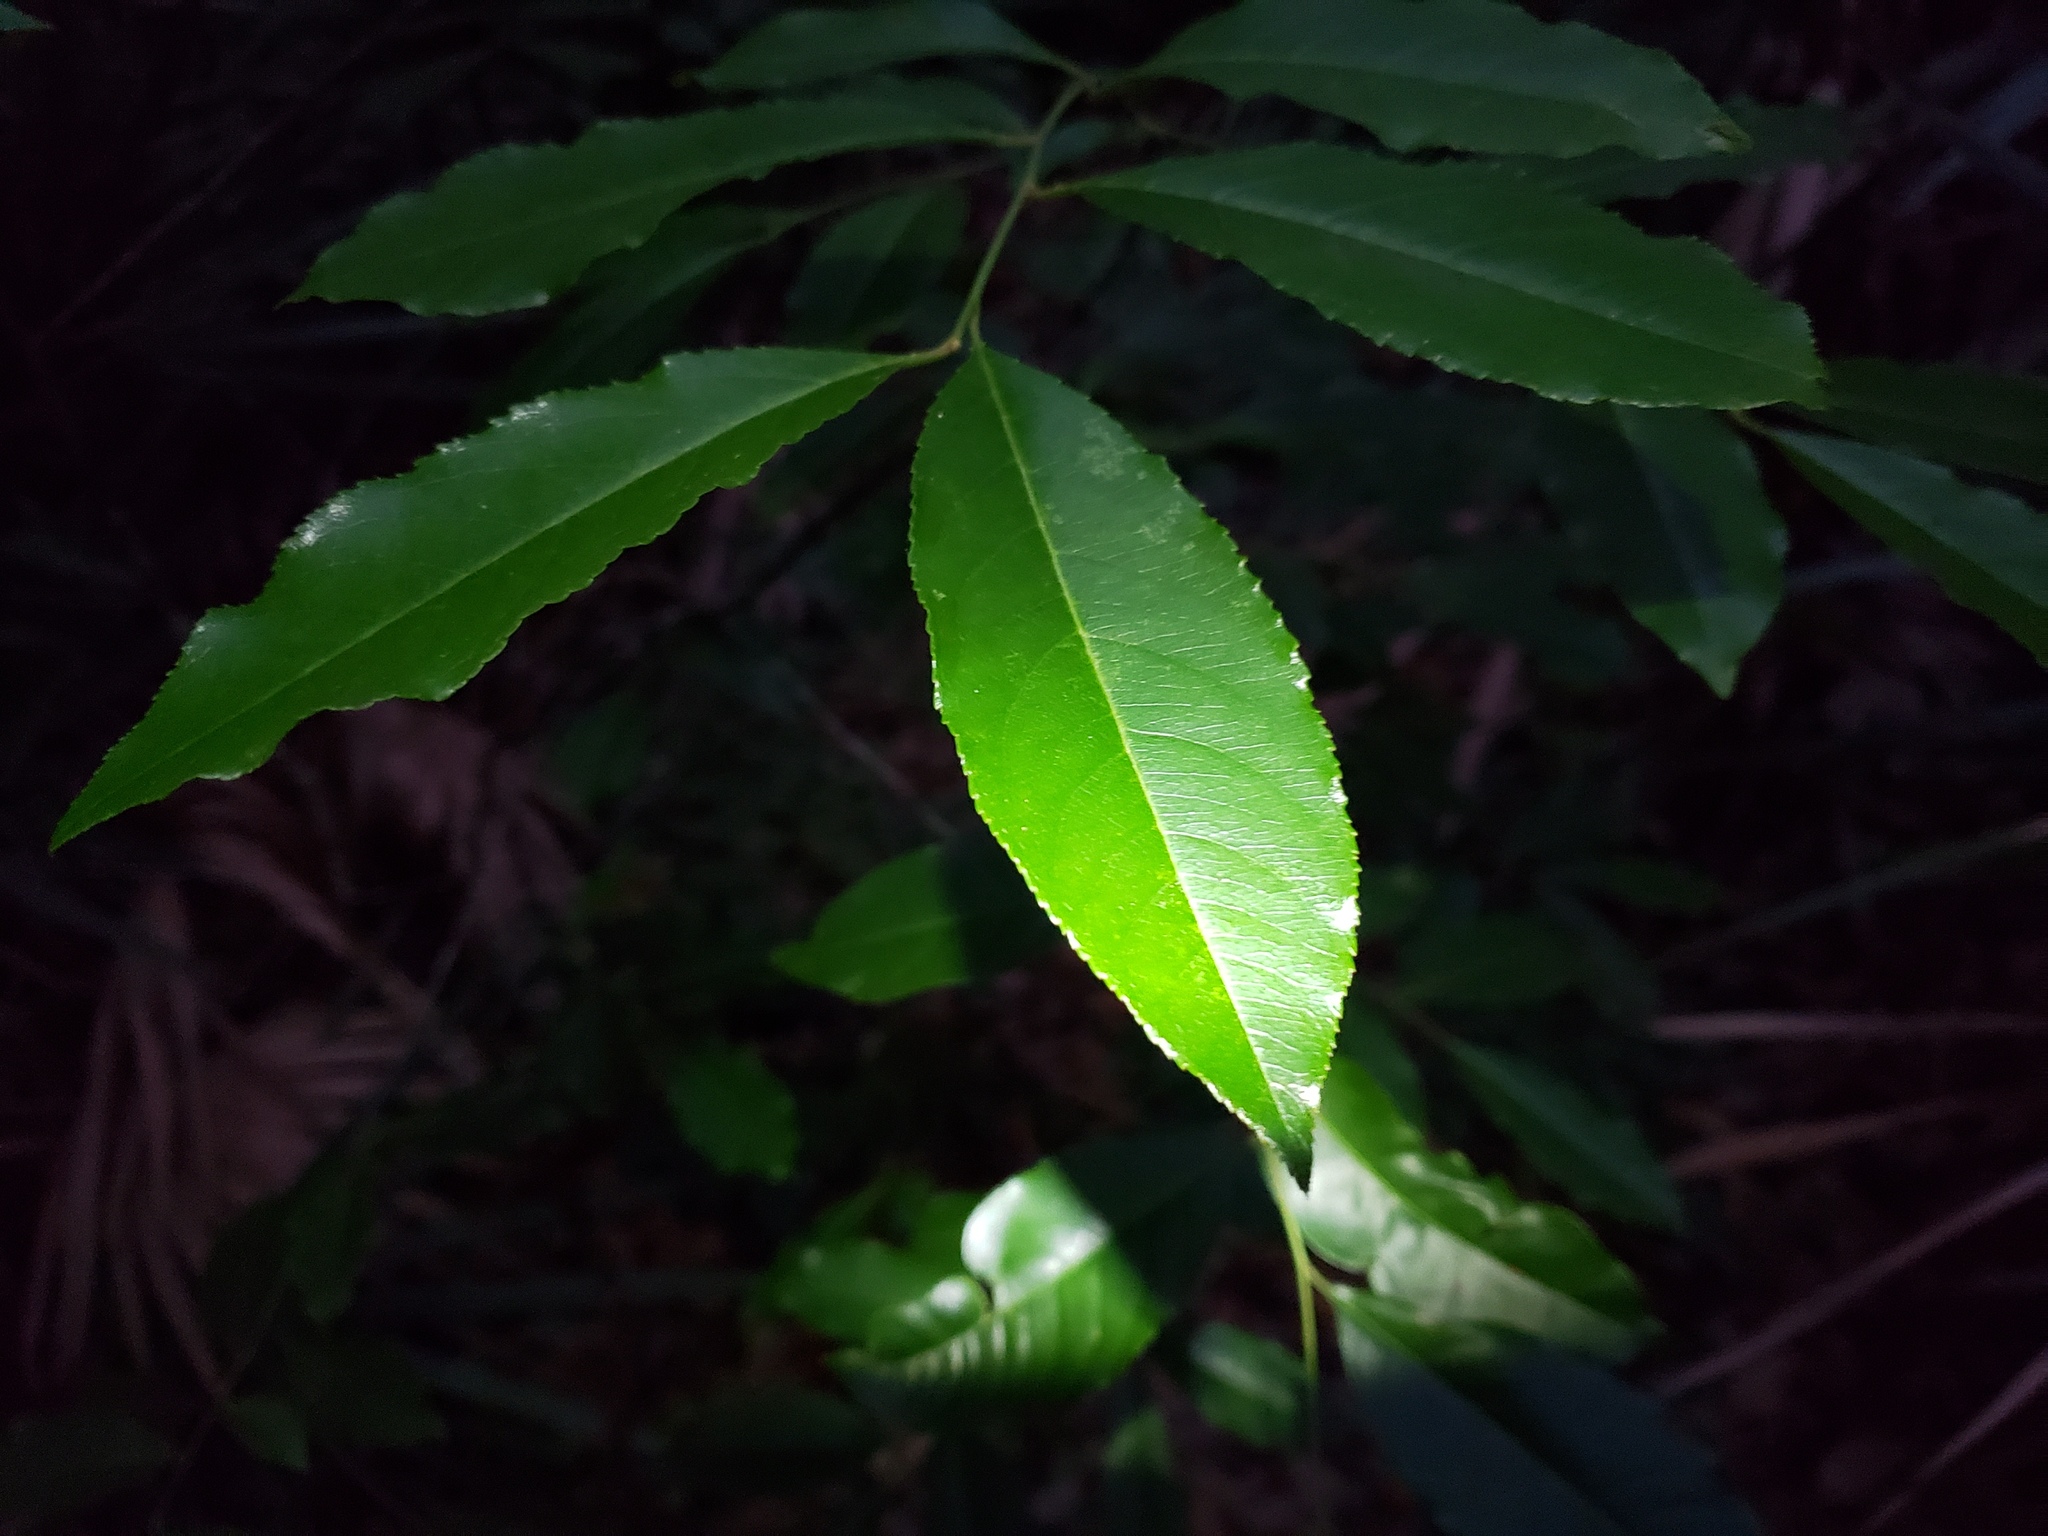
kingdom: Plantae
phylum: Tracheophyta
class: Magnoliopsida
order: Rosales
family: Rosaceae
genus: Prunus
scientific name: Prunus serotina
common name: Black cherry
